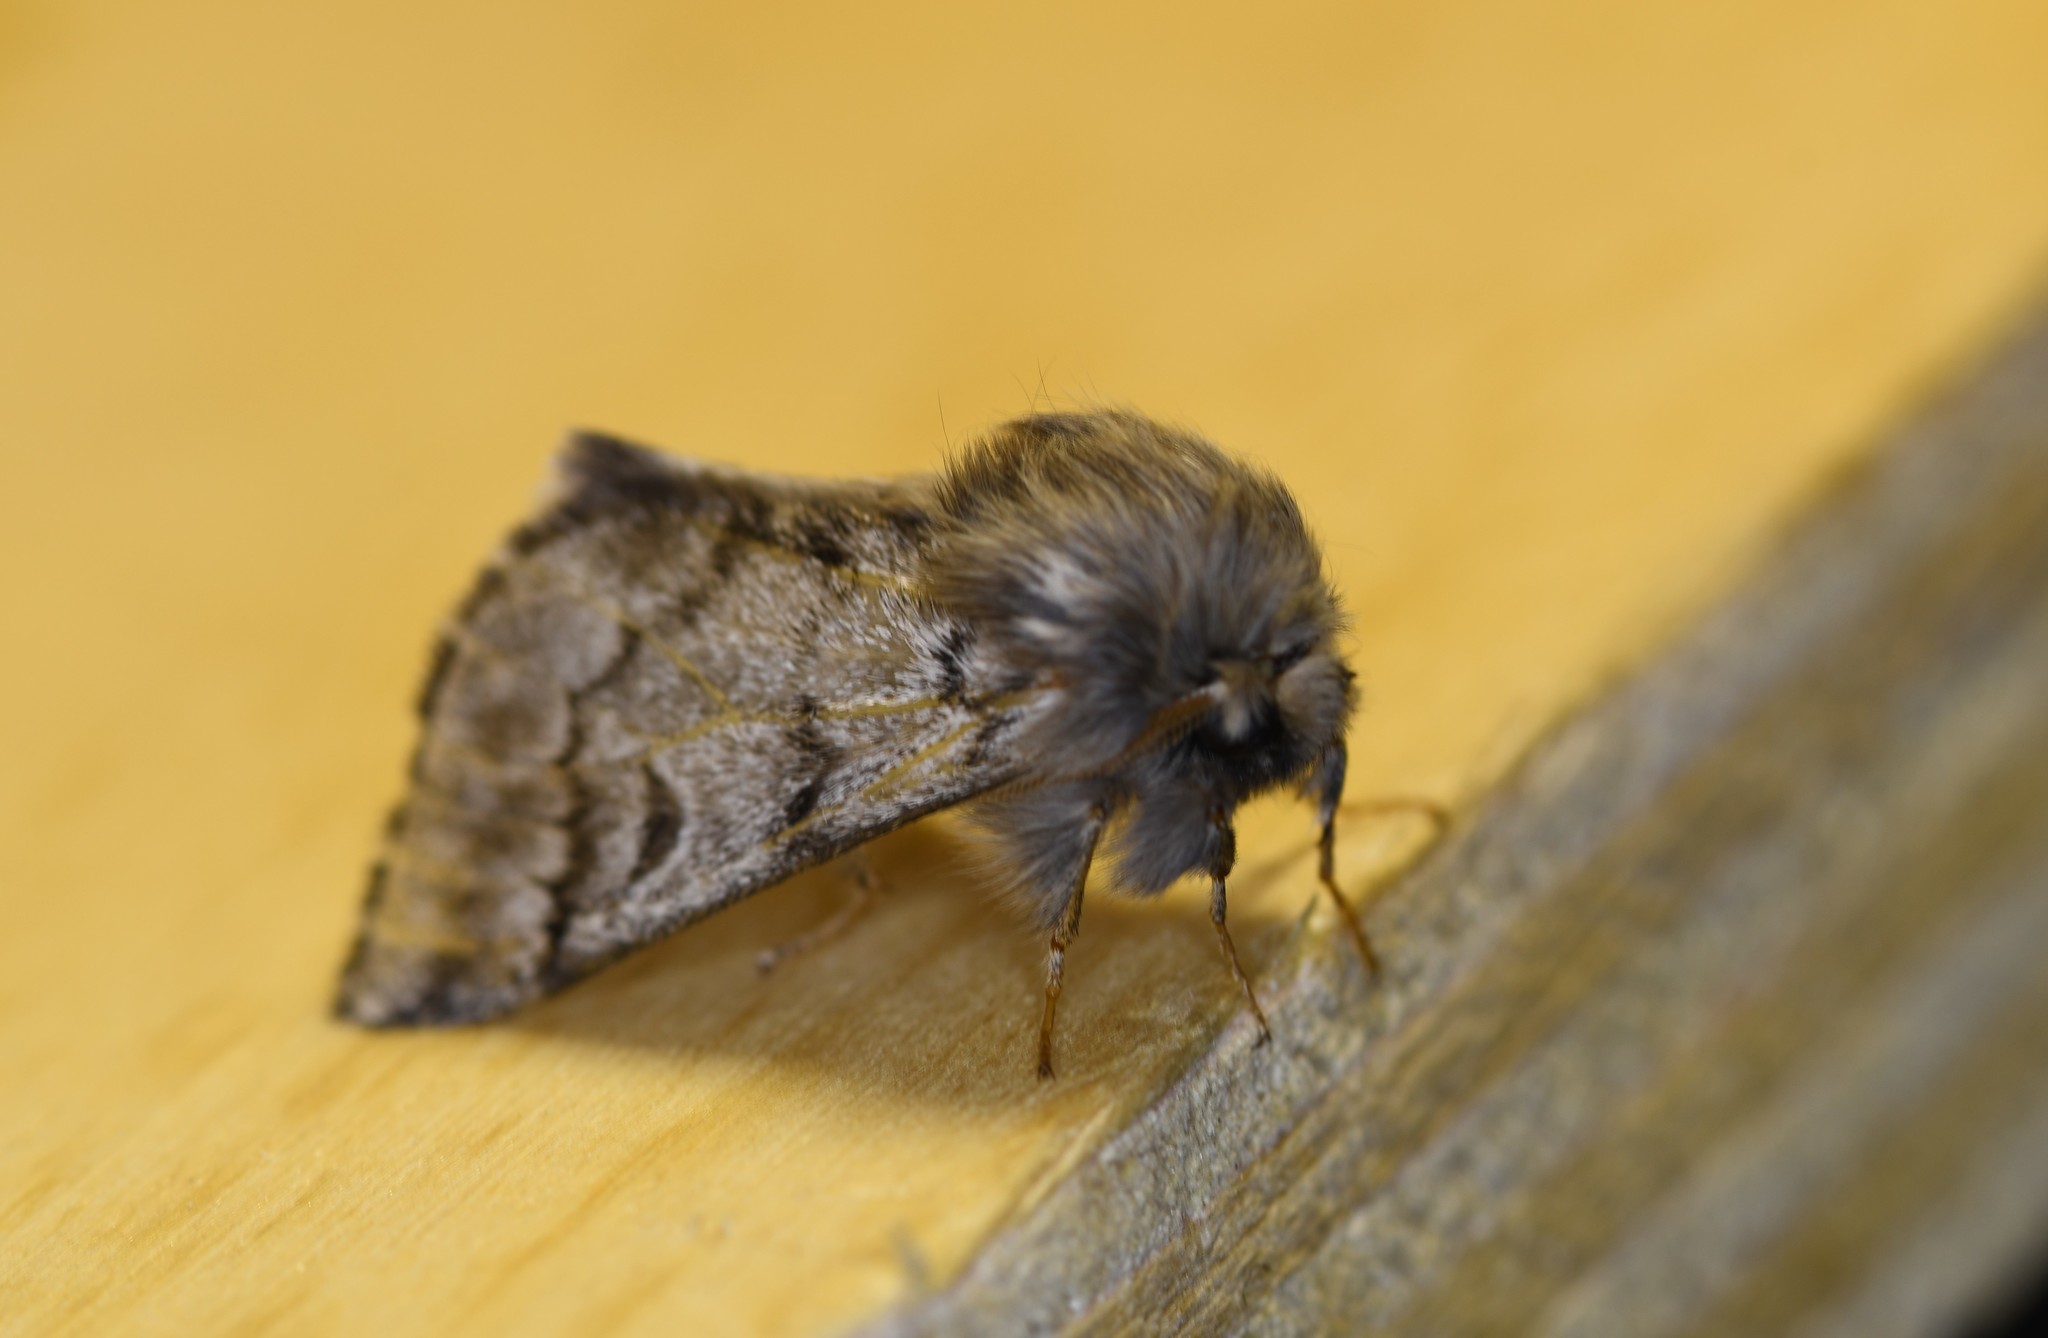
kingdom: Animalia
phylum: Arthropoda
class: Insecta
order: Lepidoptera
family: Notodontidae
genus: Thaumetopoea
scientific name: Thaumetopoea pityocampa
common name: Pine processionary
